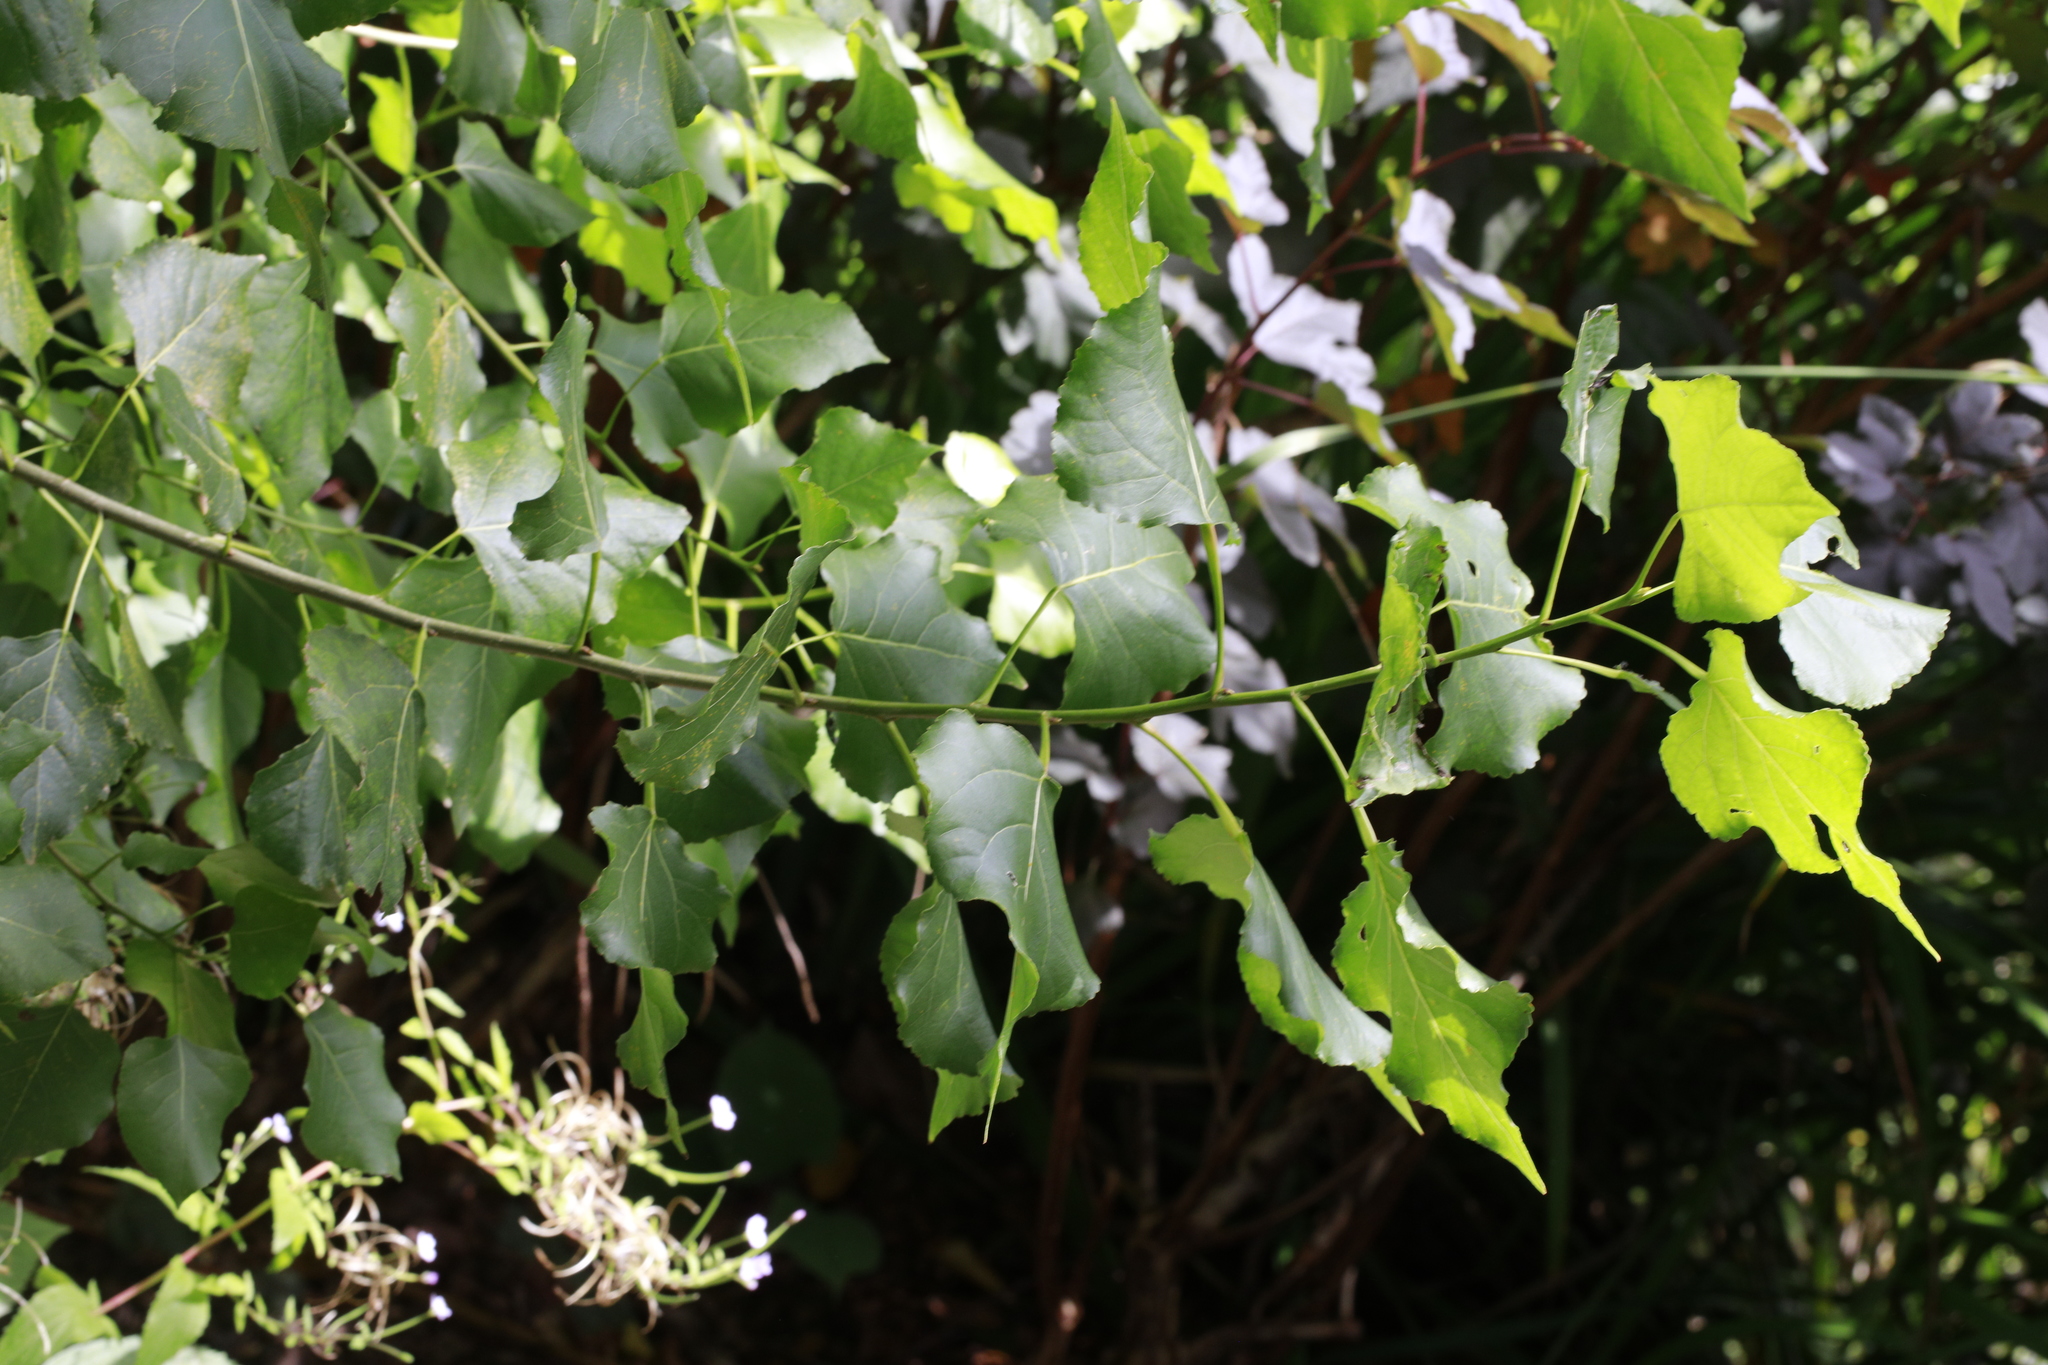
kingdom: Plantae
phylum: Tracheophyta
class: Magnoliopsida
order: Malpighiales
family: Salicaceae
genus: Populus
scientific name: Populus nigra
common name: Black poplar
